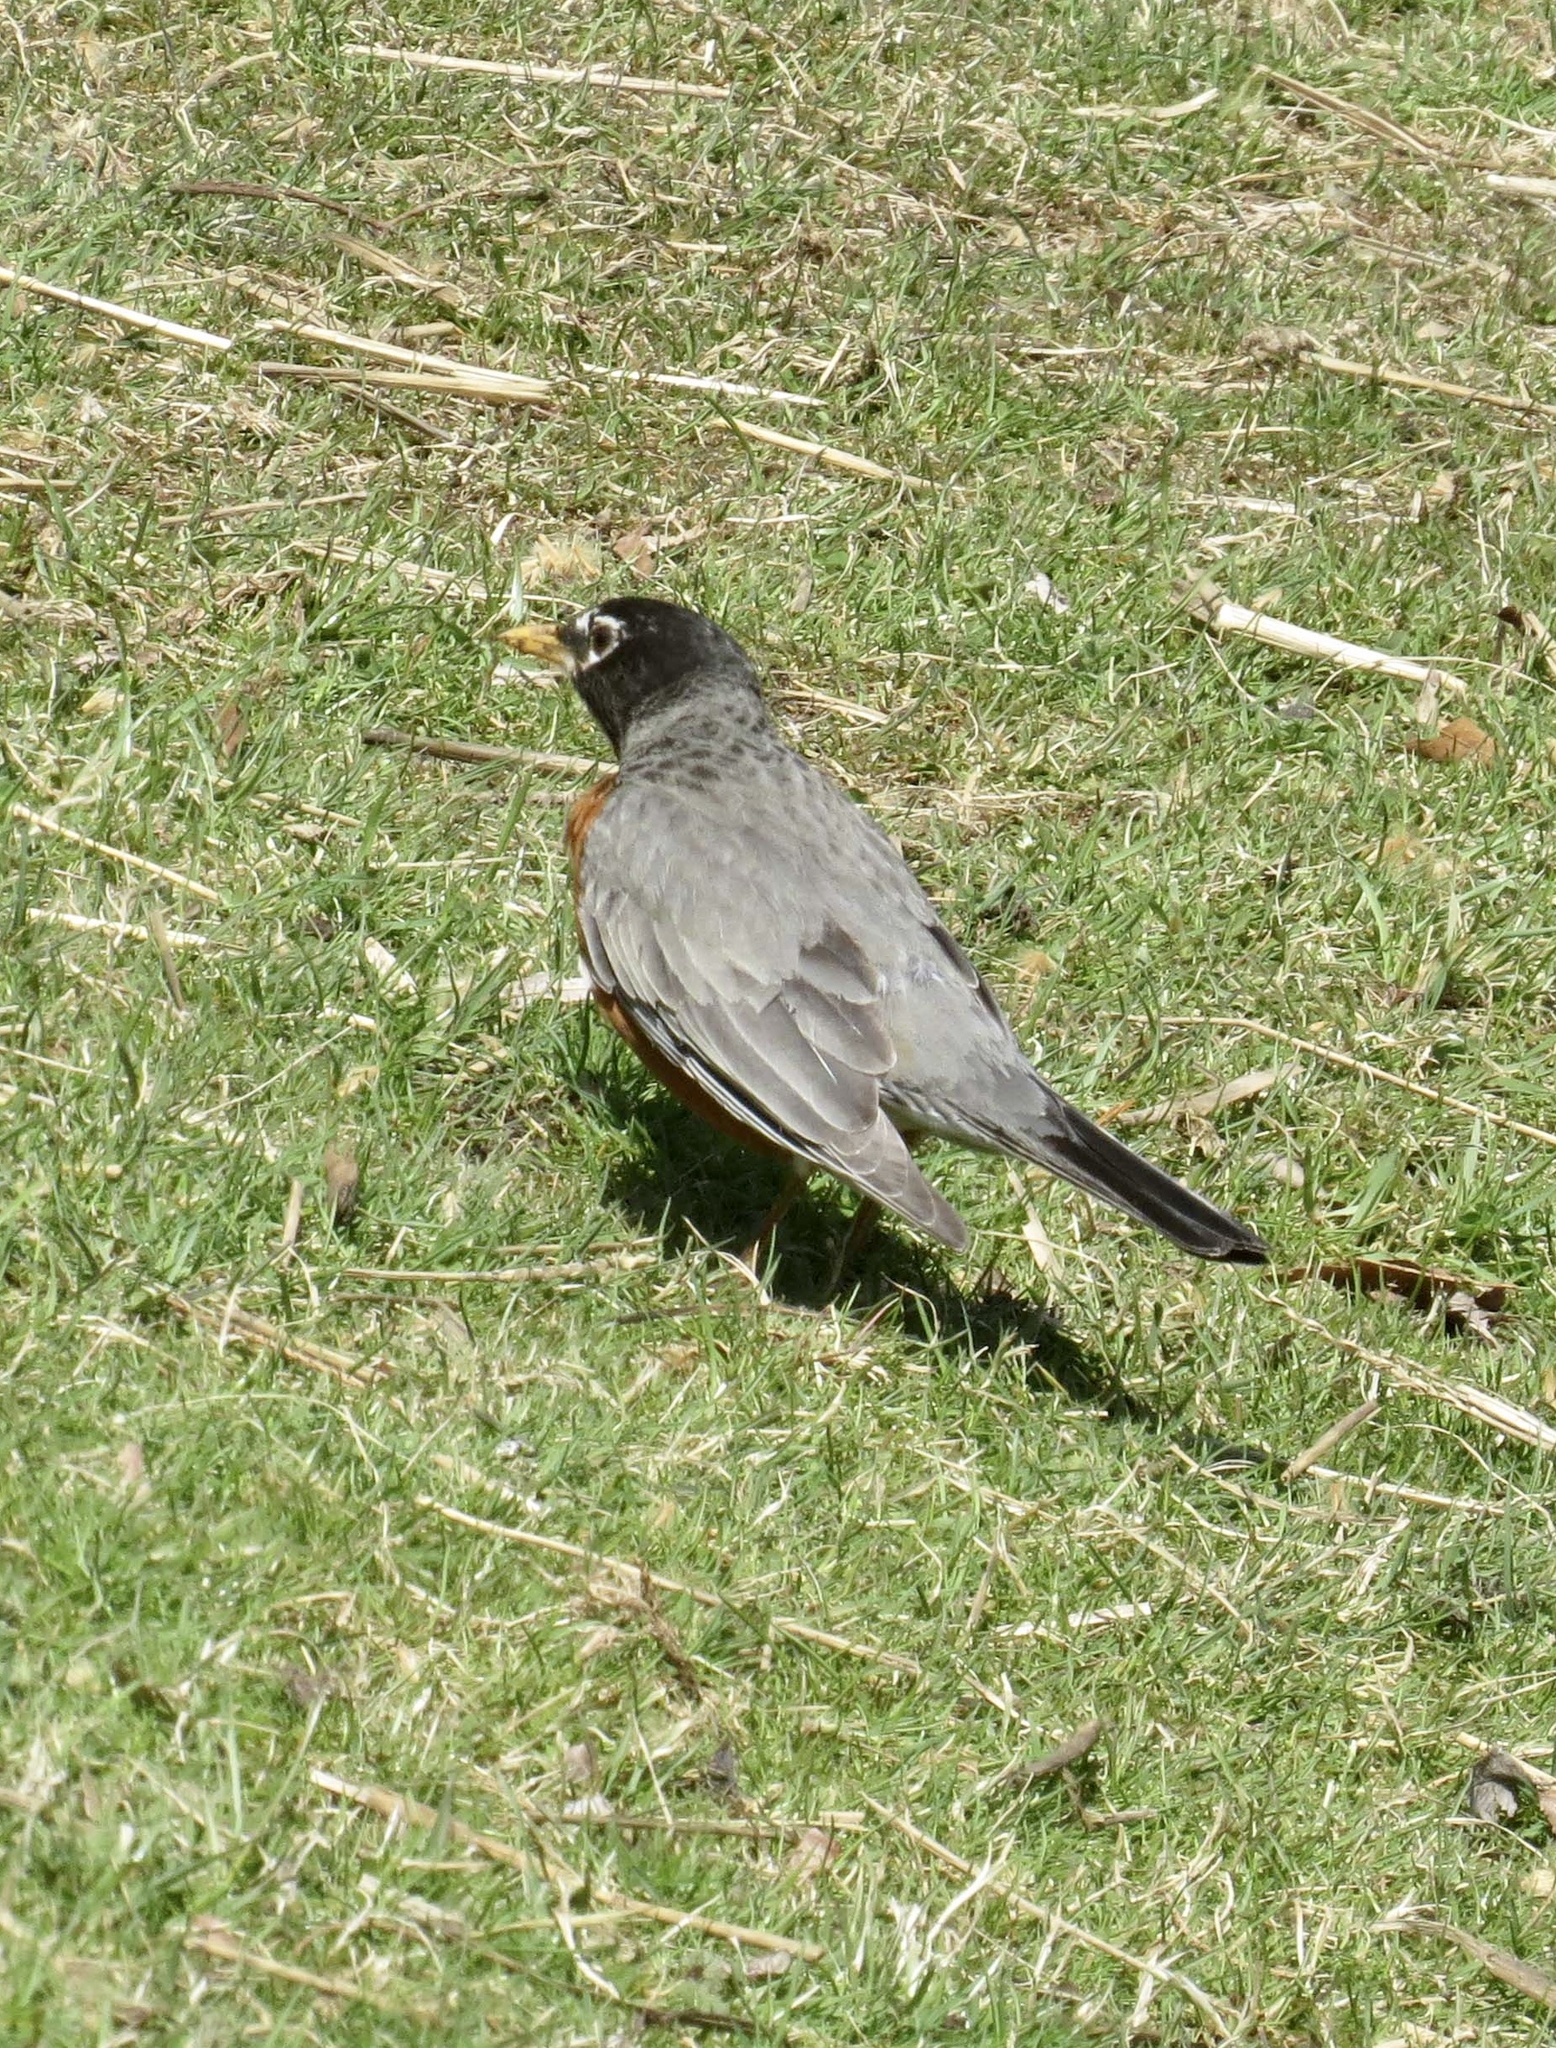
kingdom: Animalia
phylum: Chordata
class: Aves
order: Passeriformes
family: Turdidae
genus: Turdus
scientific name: Turdus migratorius
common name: American robin
